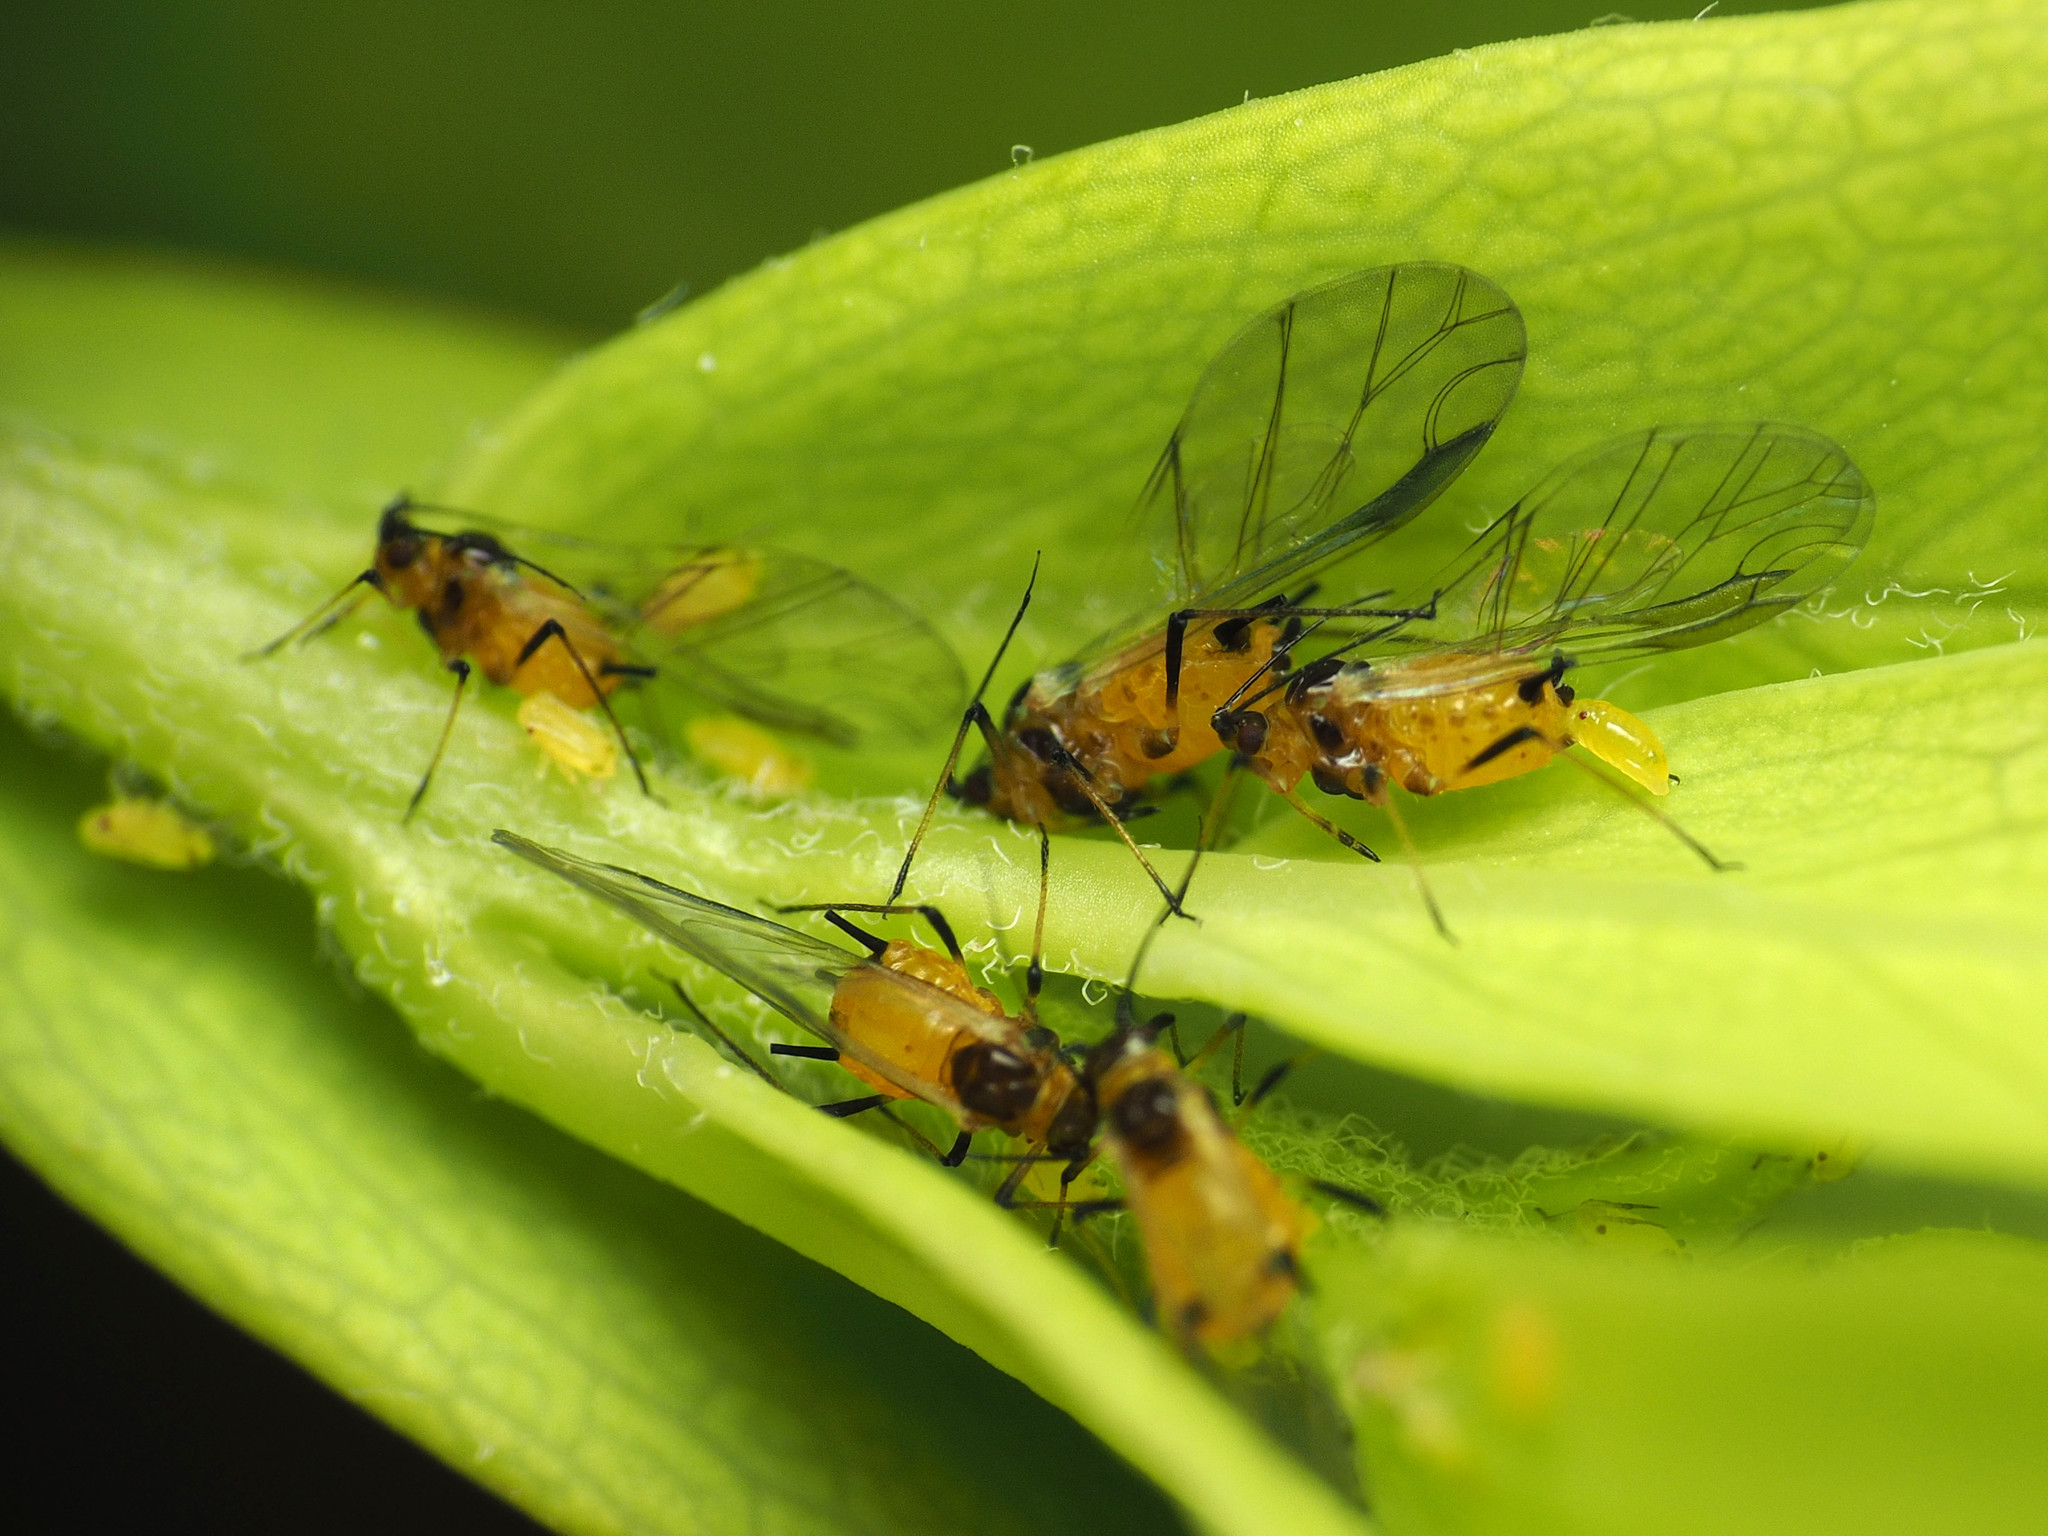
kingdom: Animalia
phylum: Arthropoda
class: Insecta
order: Hemiptera
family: Aphididae
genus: Aphis
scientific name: Aphis nerii
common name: Oleander aphid
